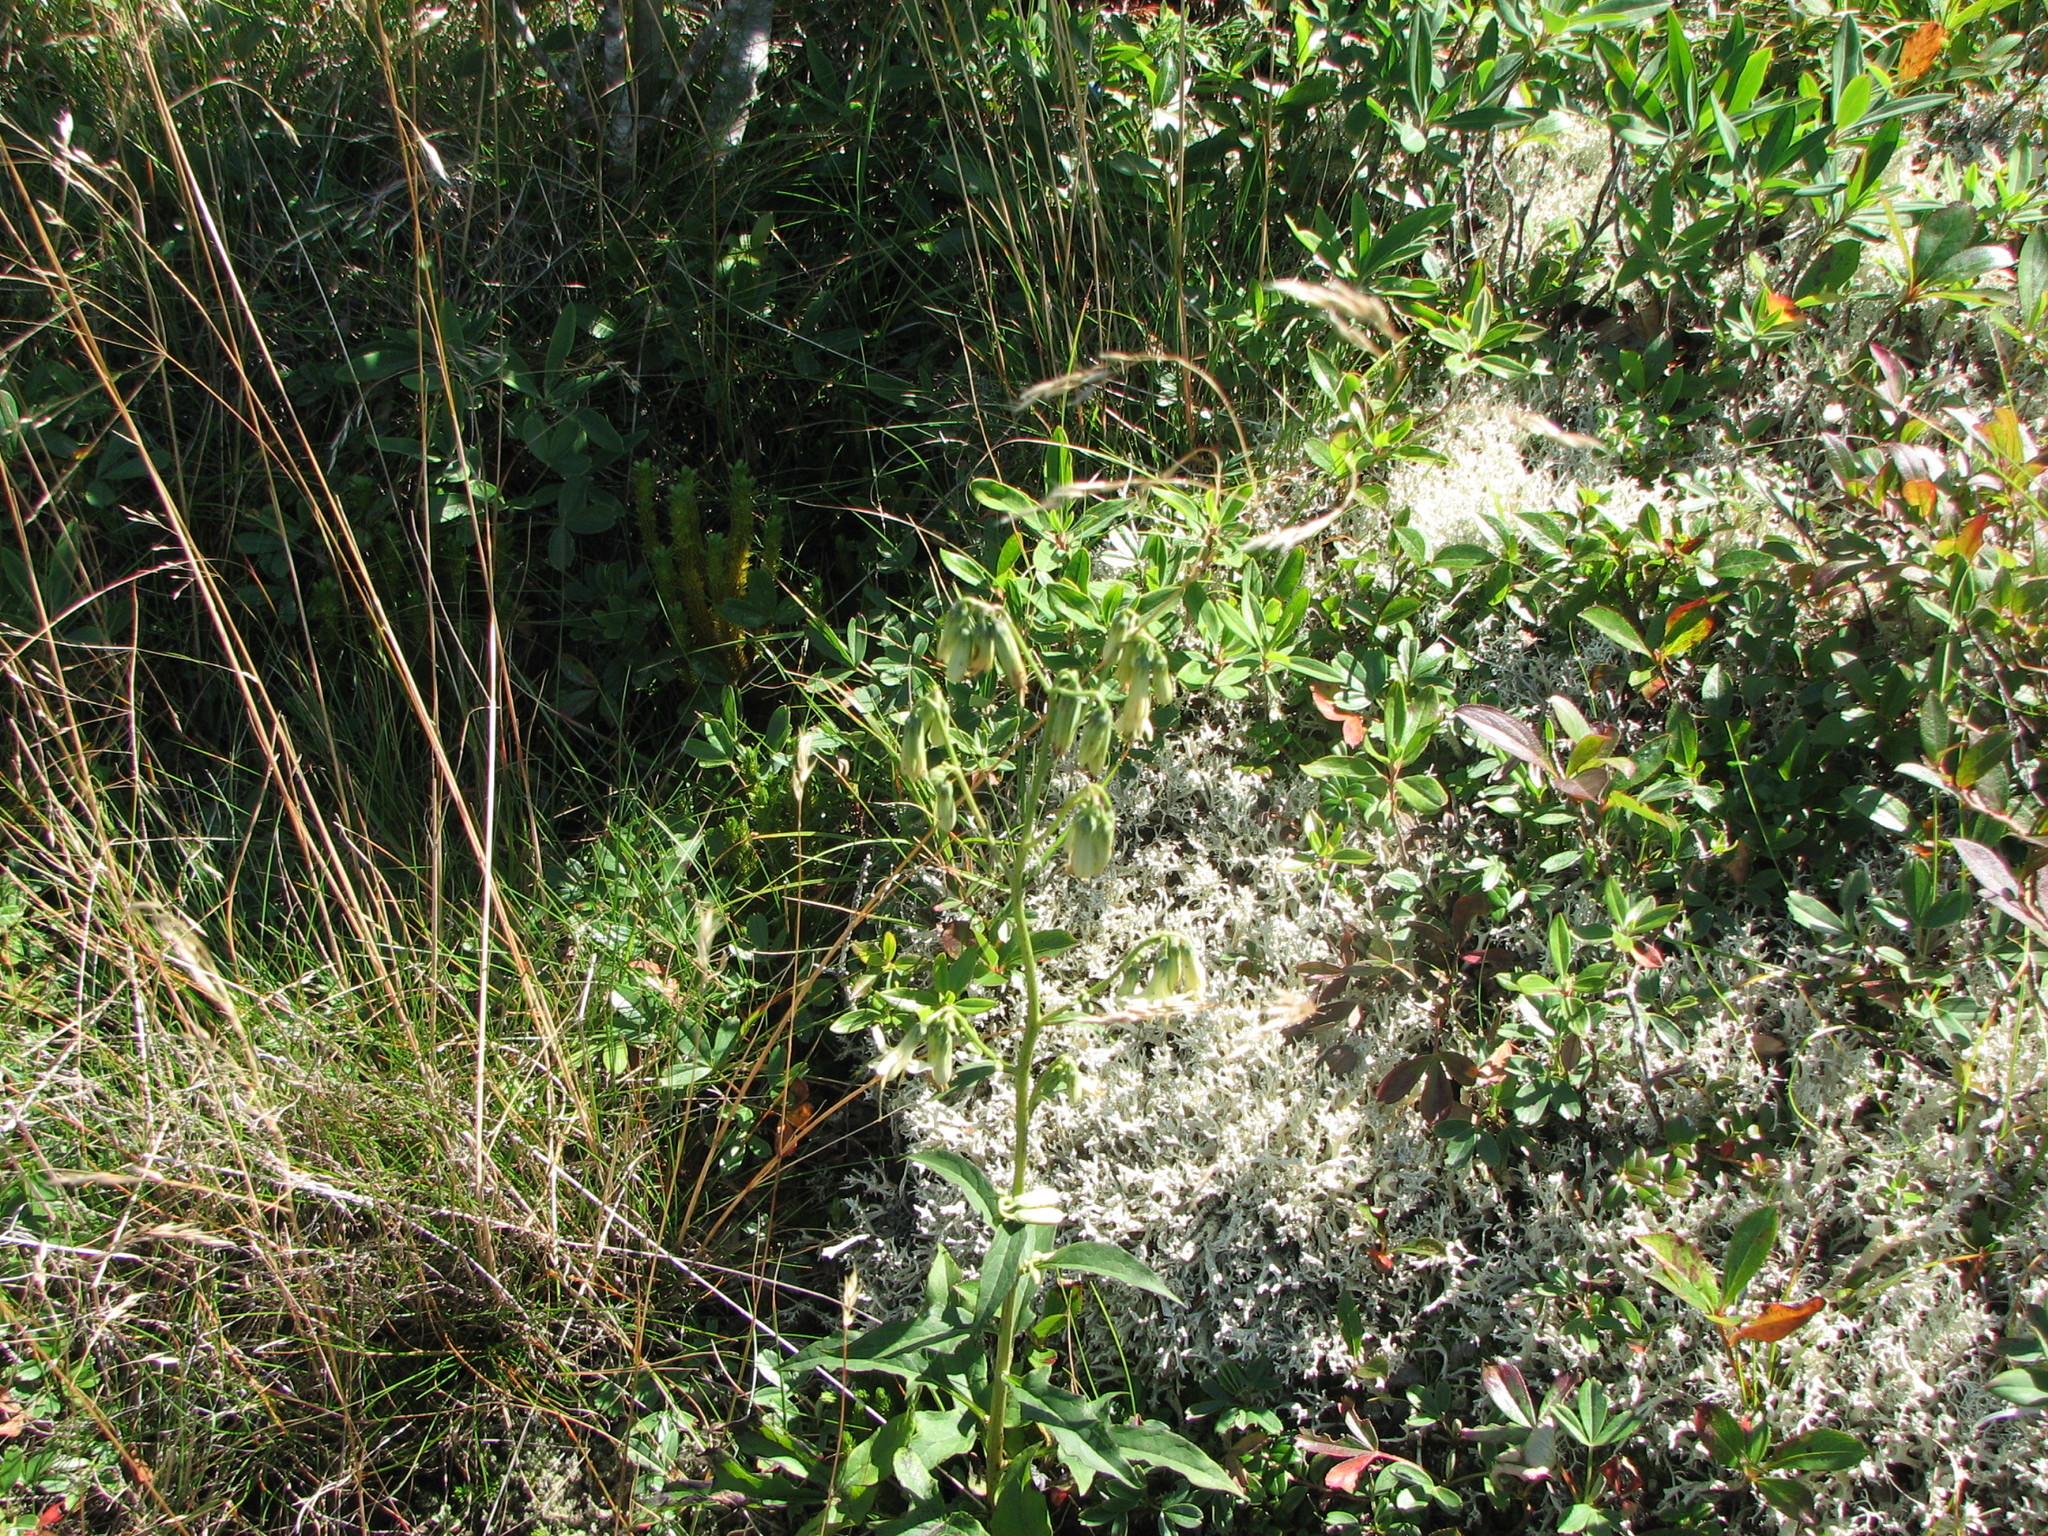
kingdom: Plantae
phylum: Tracheophyta
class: Magnoliopsida
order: Asterales
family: Asteraceae
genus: Nabalus
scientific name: Nabalus trifoliolatus
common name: Gall-of-the-earth
